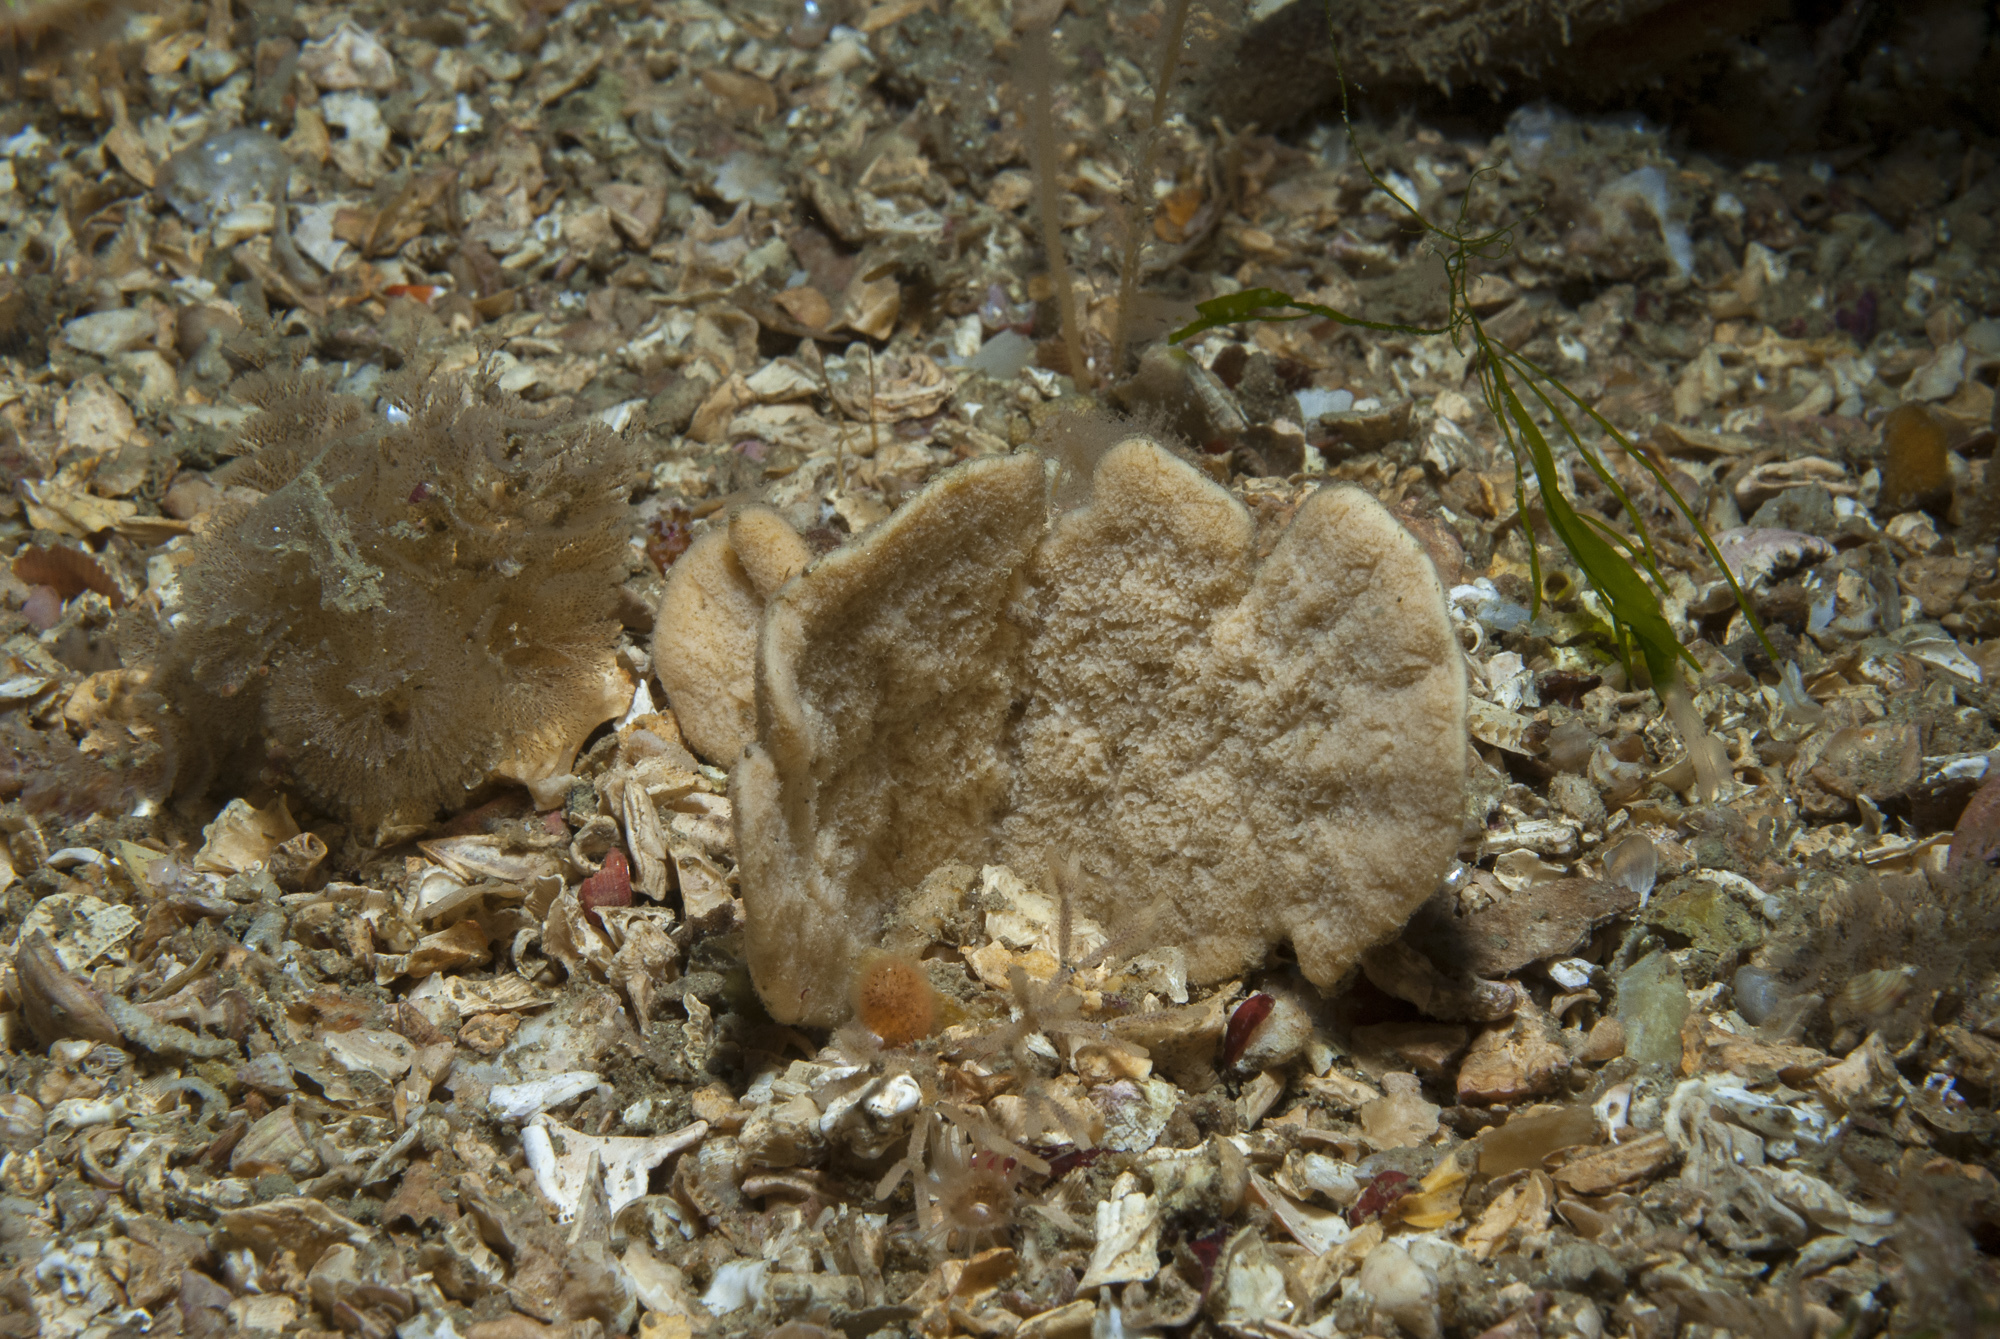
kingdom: Animalia
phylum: Porifera
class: Demospongiae
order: Axinellida
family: Axinellidae
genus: Axinella
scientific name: Axinella flustra
